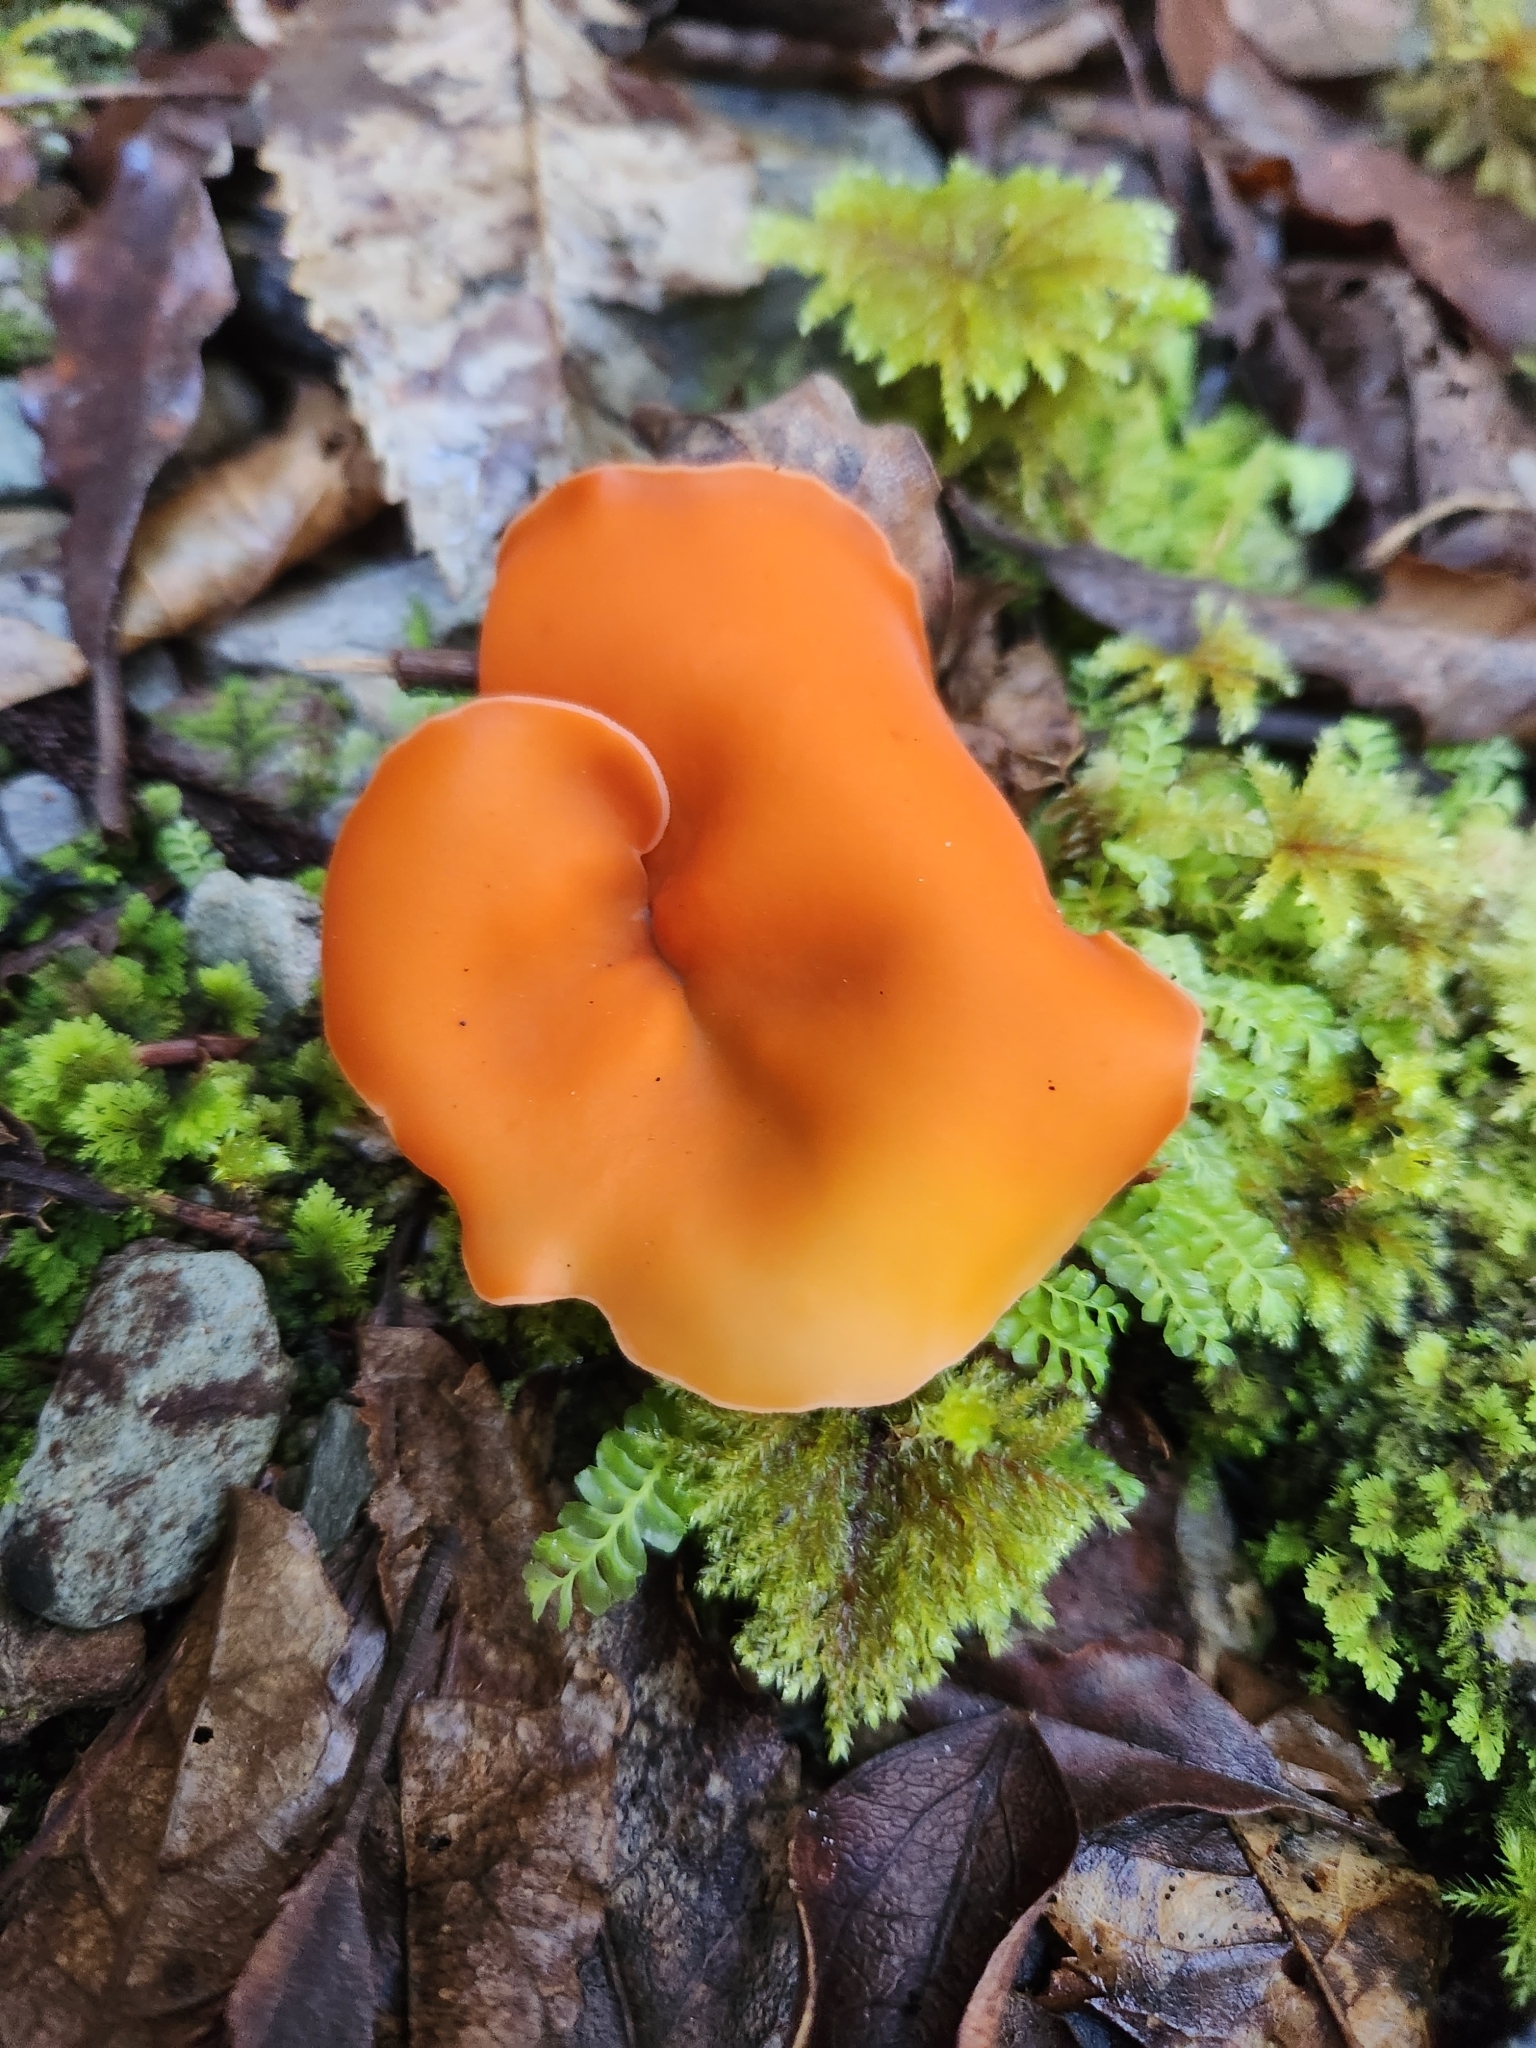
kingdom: Fungi
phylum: Ascomycota
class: Pezizomycetes
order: Pezizales
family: Pyronemataceae
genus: Aleuria
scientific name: Aleuria aurantia
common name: Orange peel fungus
